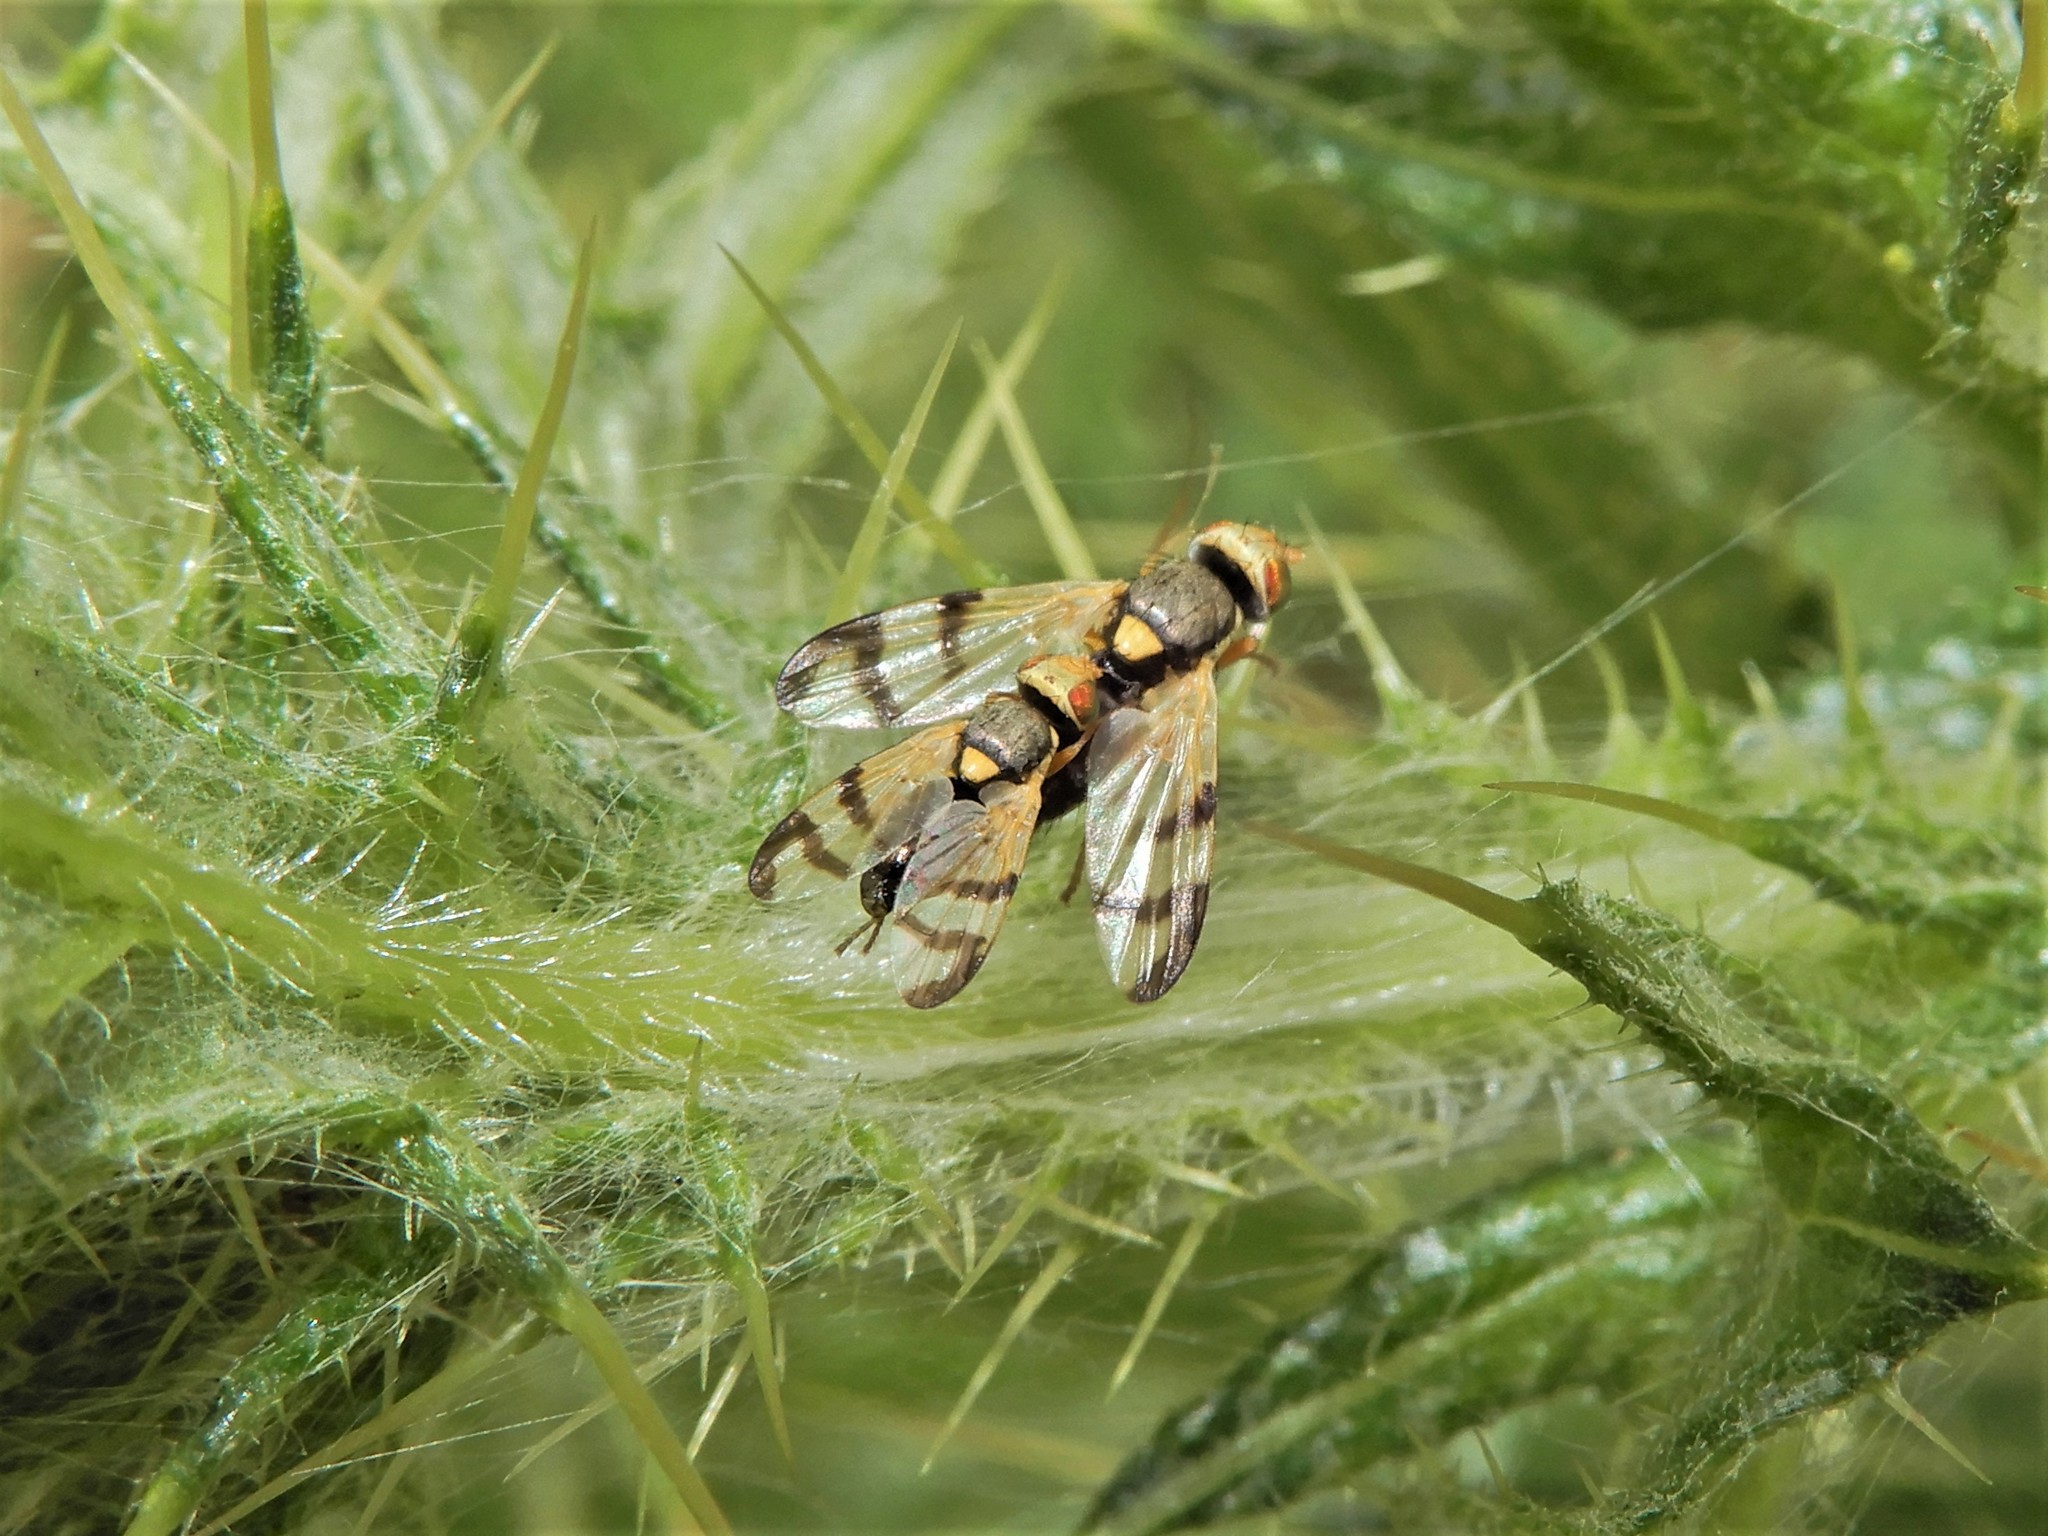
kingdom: Animalia
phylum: Arthropoda
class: Insecta
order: Diptera
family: Tephritidae
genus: Urophora
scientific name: Urophora stylata
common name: Fruit fly
